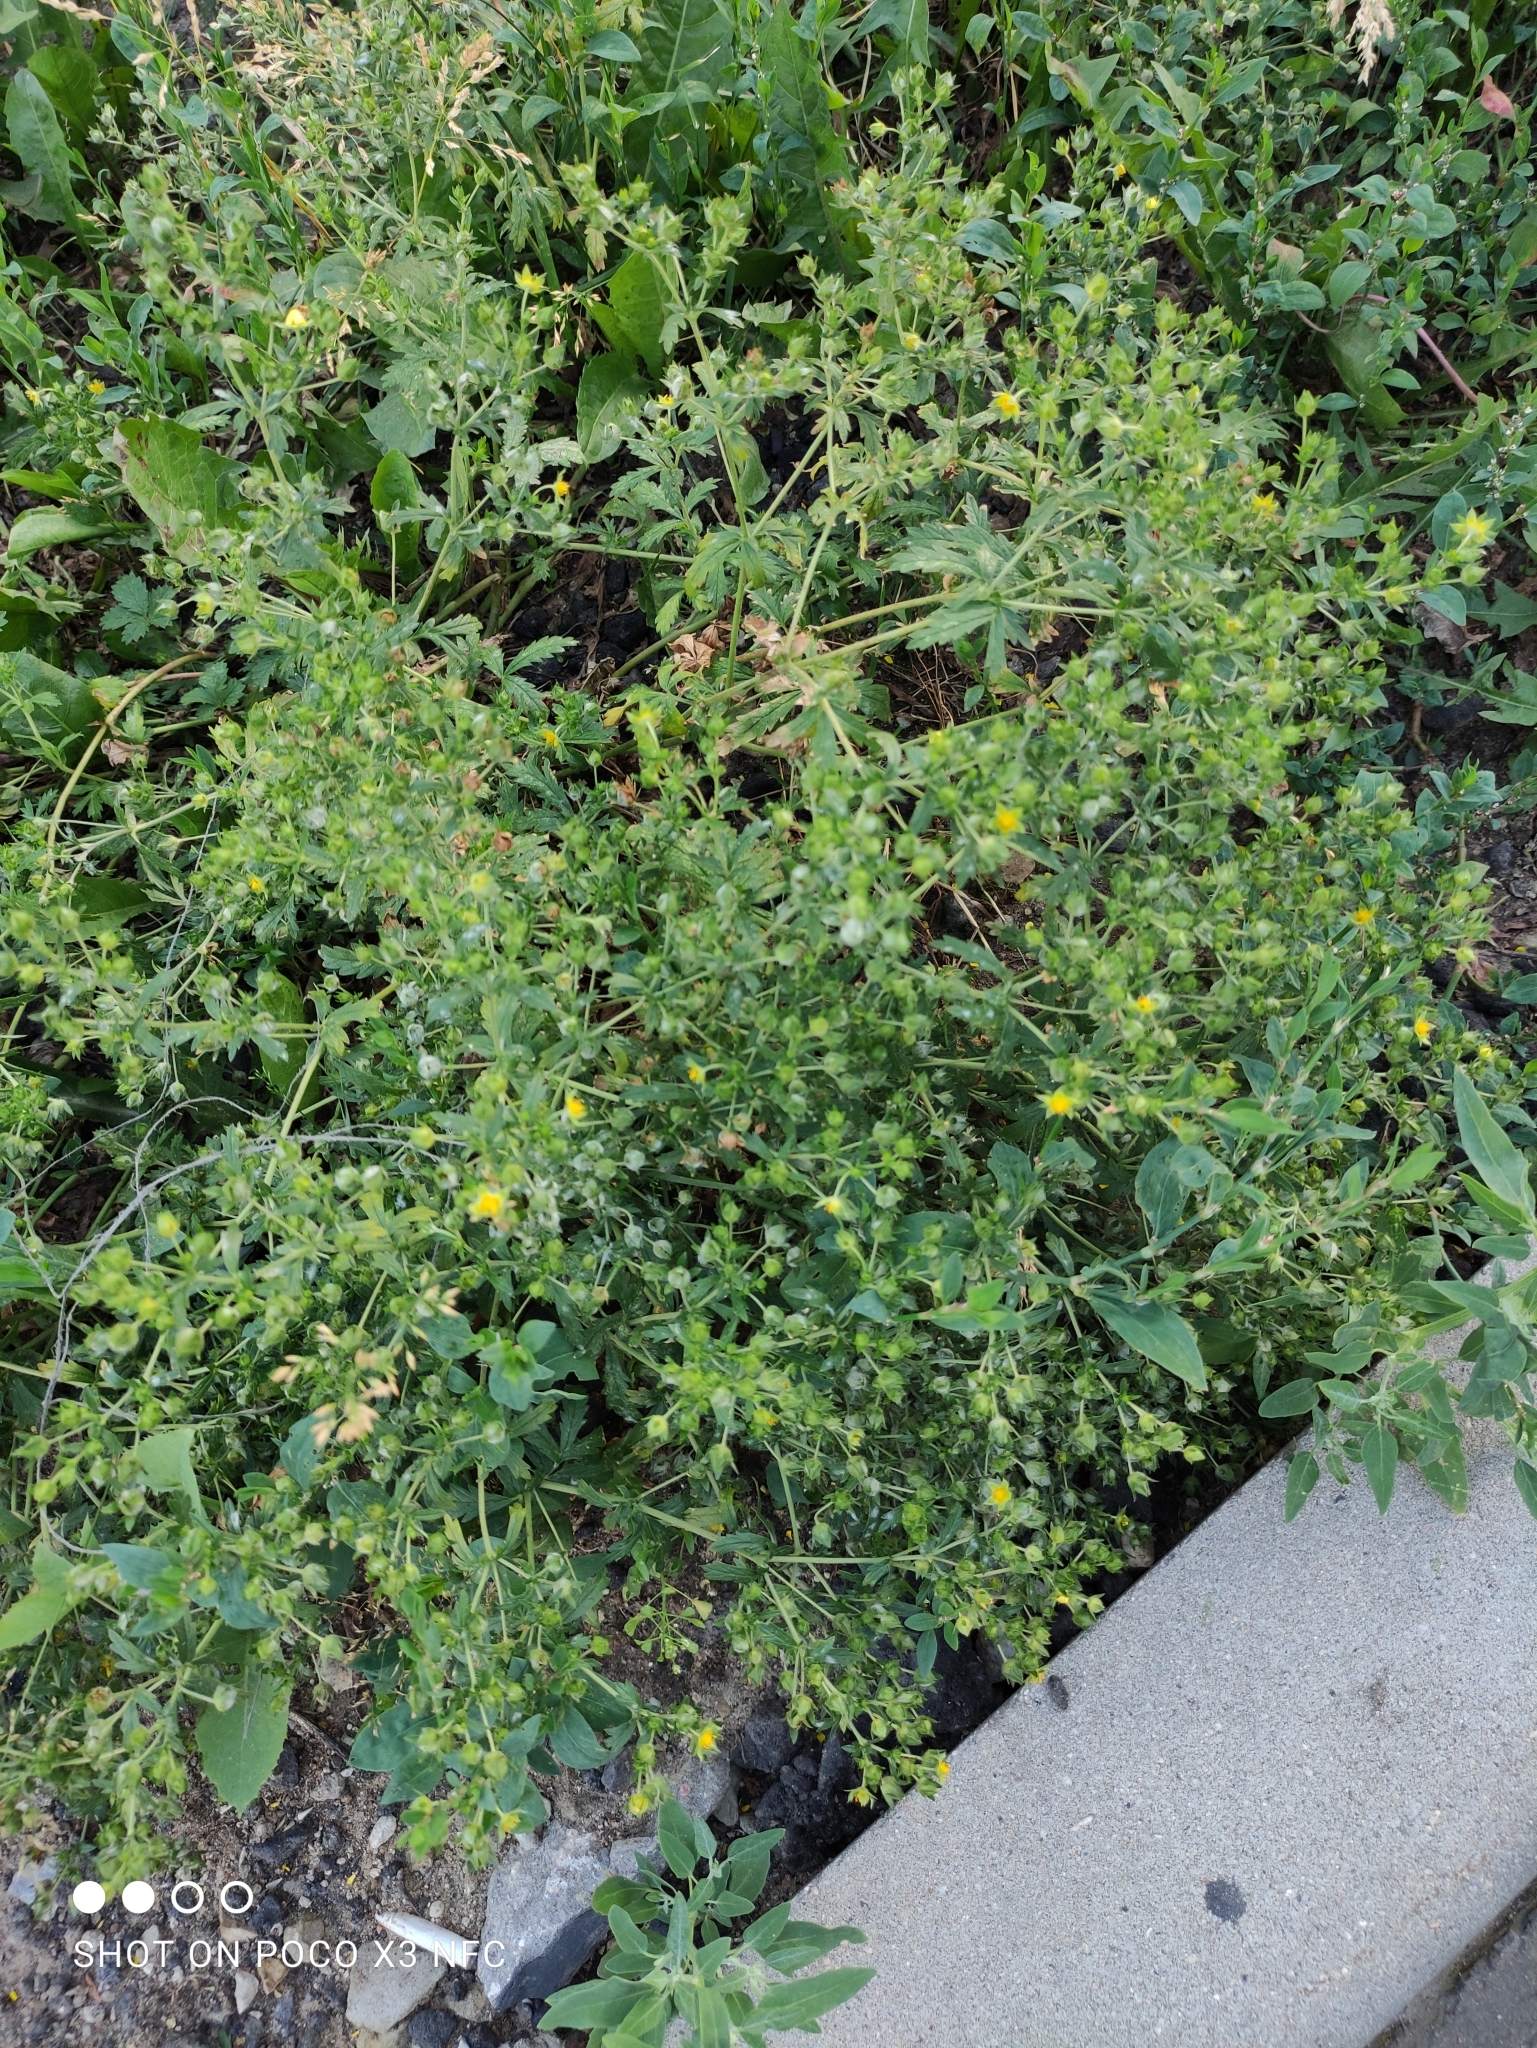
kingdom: Plantae
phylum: Tracheophyta
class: Magnoliopsida
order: Rosales
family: Rosaceae
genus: Potentilla
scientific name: Potentilla intermedia
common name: Downy cinquefoil
